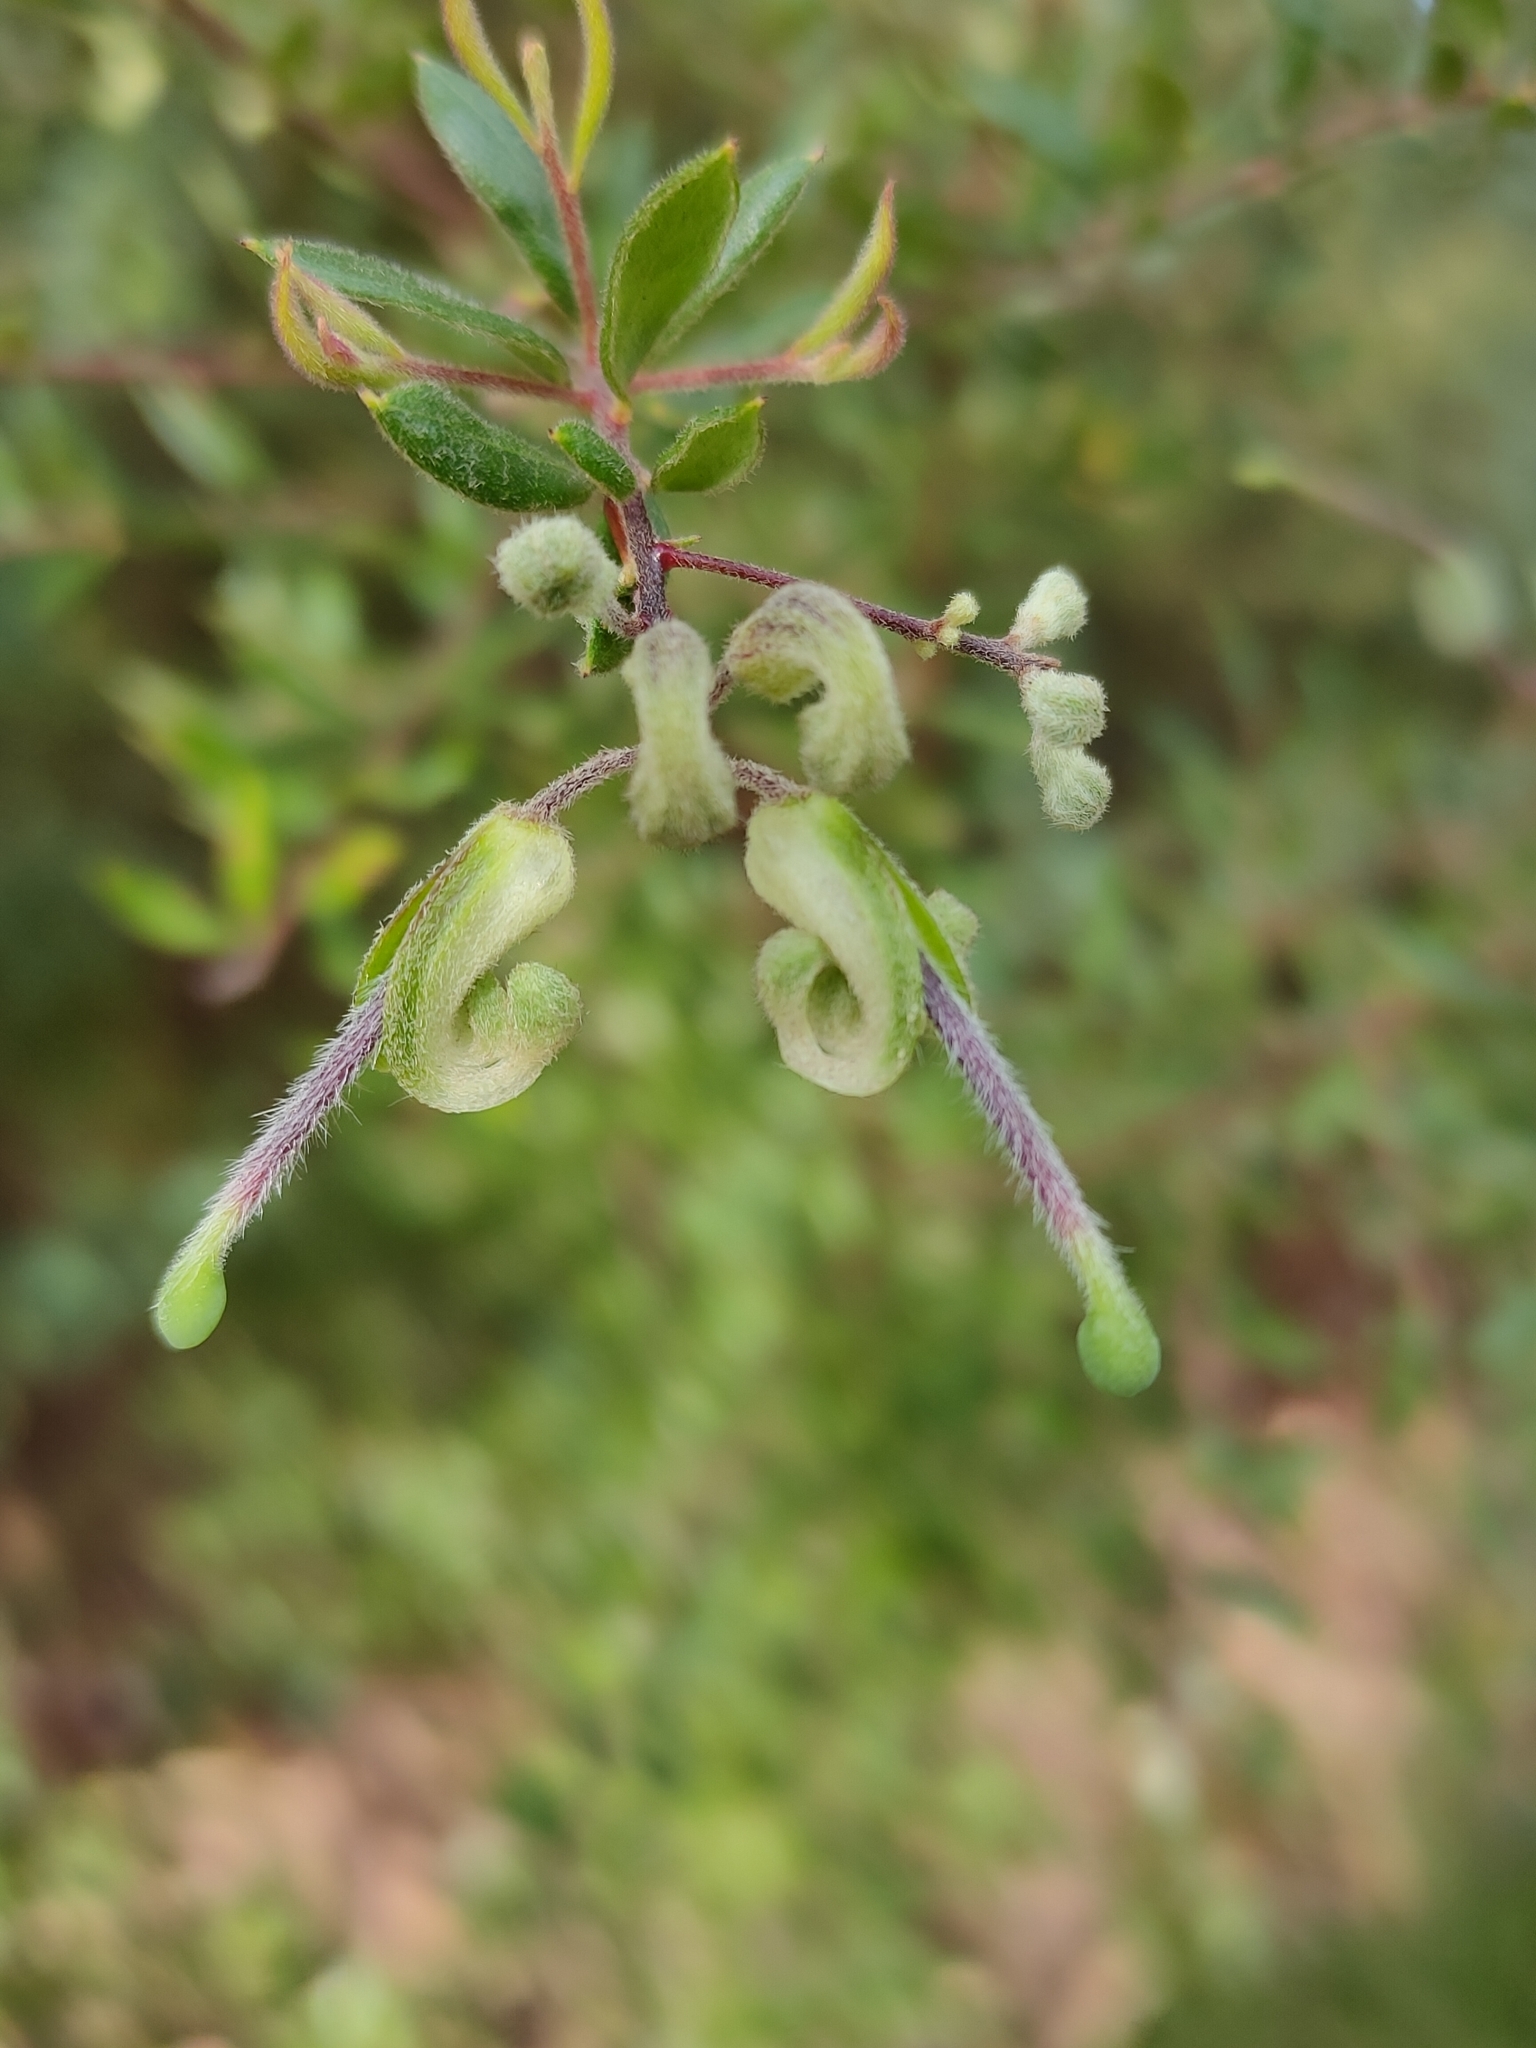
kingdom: Plantae
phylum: Tracheophyta
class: Magnoliopsida
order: Proteales
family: Proteaceae
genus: Grevillea
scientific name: Grevillea mucronulata
